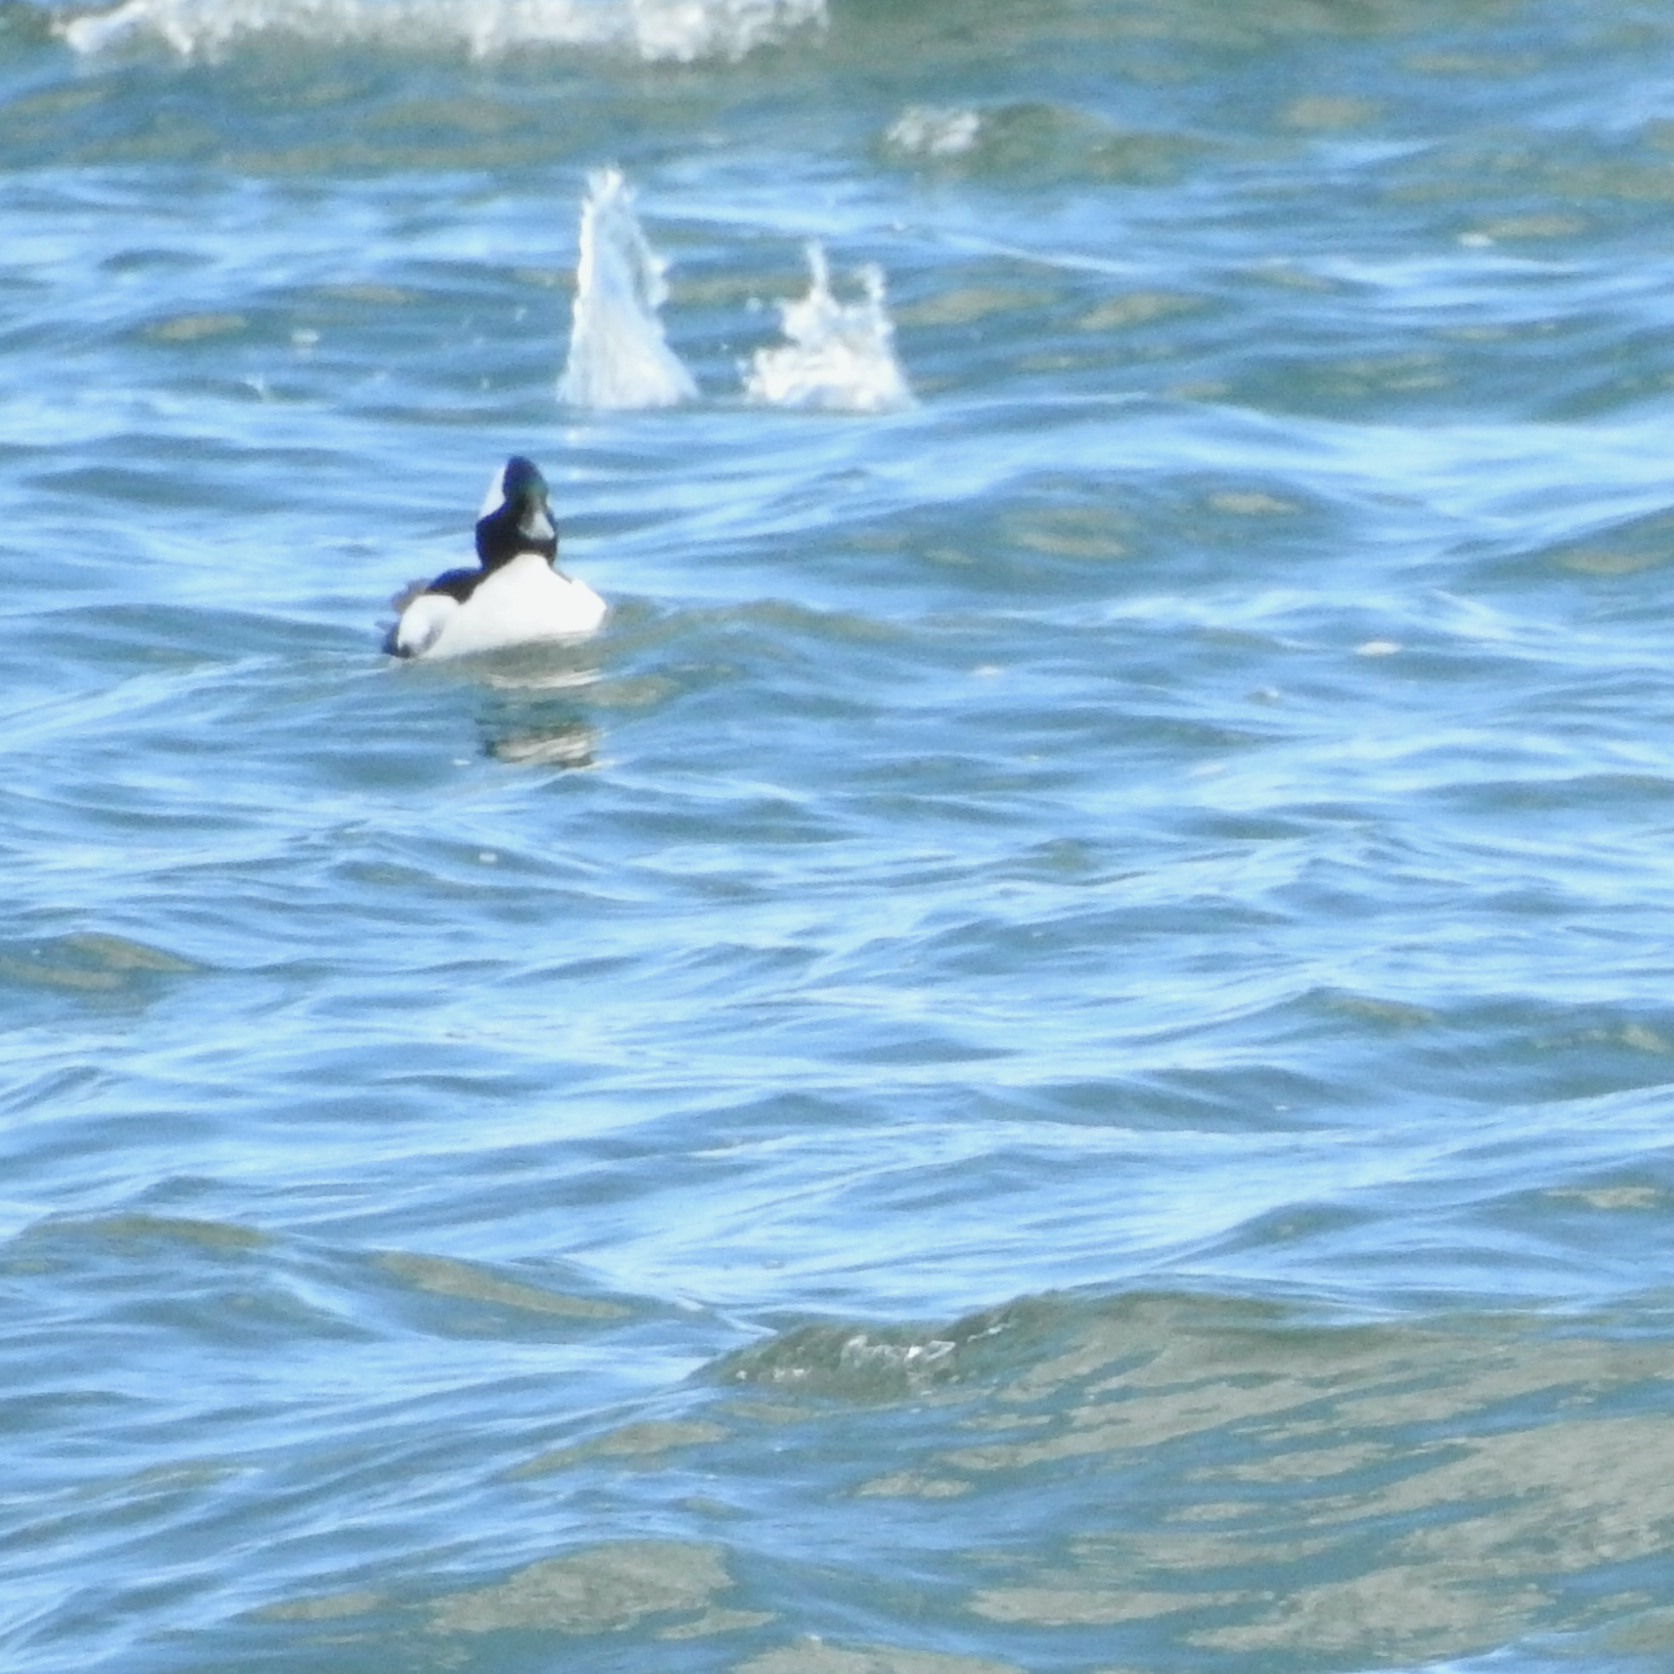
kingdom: Animalia
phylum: Chordata
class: Aves
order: Anseriformes
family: Anatidae
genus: Bucephala
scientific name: Bucephala albeola
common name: Bufflehead
